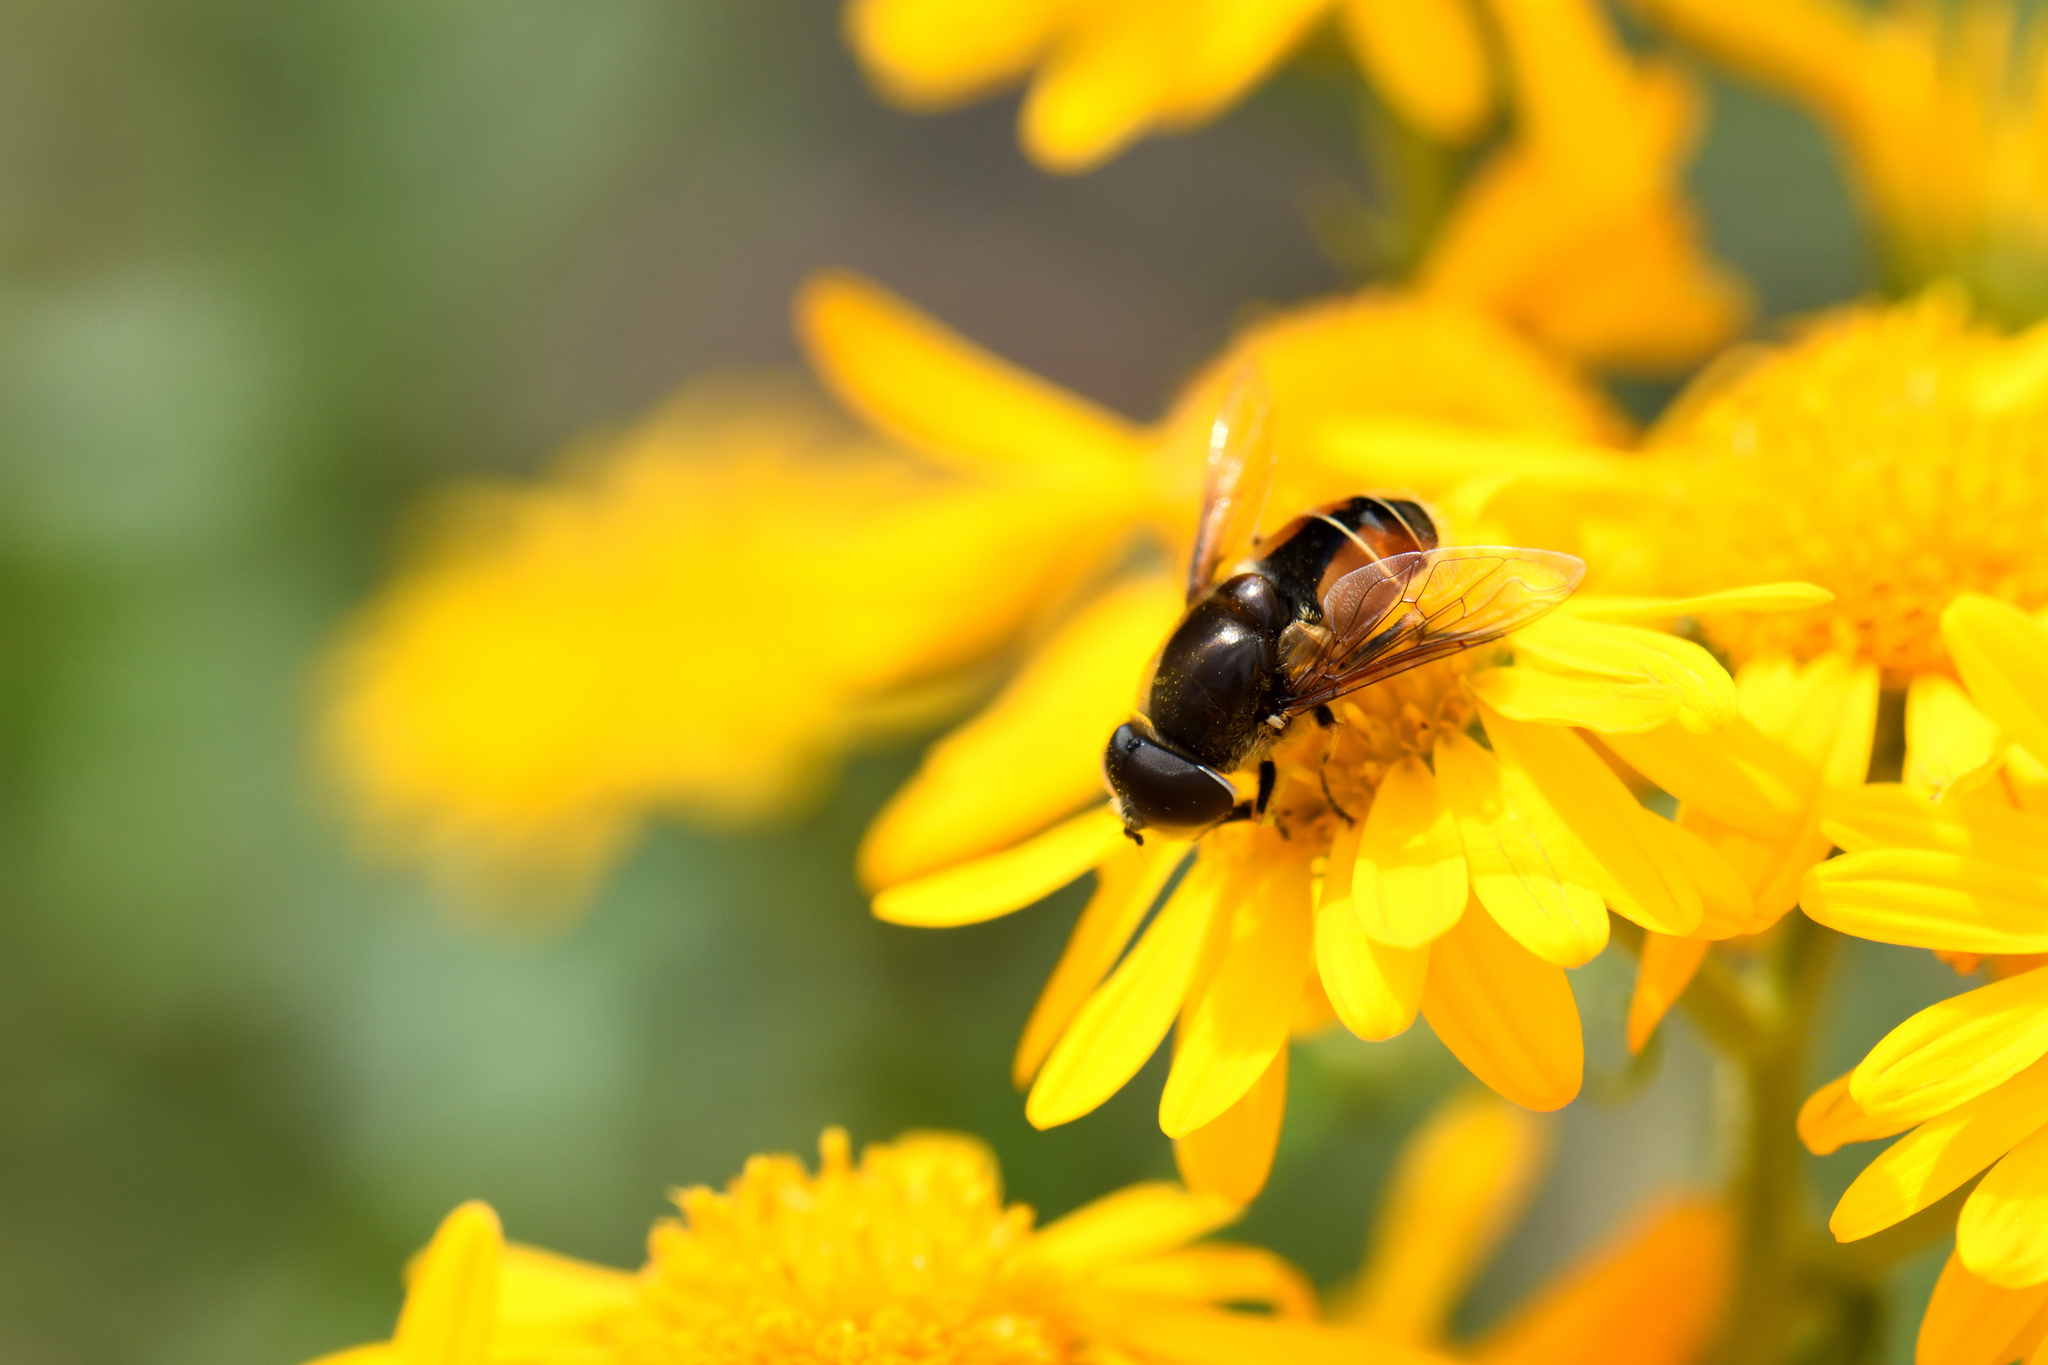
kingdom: Animalia
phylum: Arthropoda
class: Insecta
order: Diptera
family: Syrphidae
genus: Eristalis
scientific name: Eristalis tenax
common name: Drone fly
